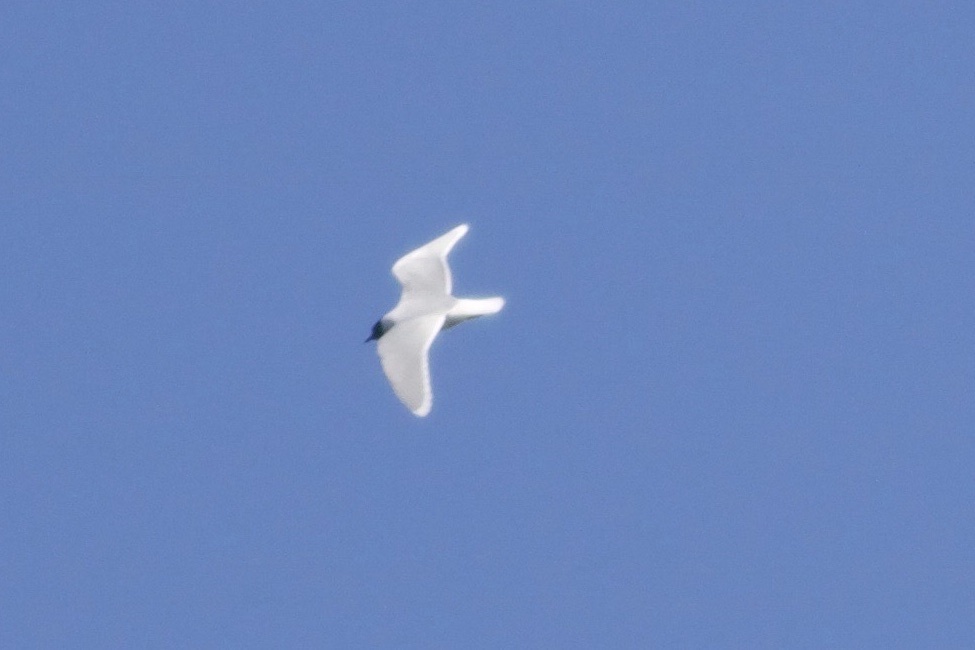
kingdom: Animalia
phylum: Chordata
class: Aves
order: Charadriiformes
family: Laridae
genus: Hydrocoloeus
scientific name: Hydrocoloeus minutus
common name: Little gull
